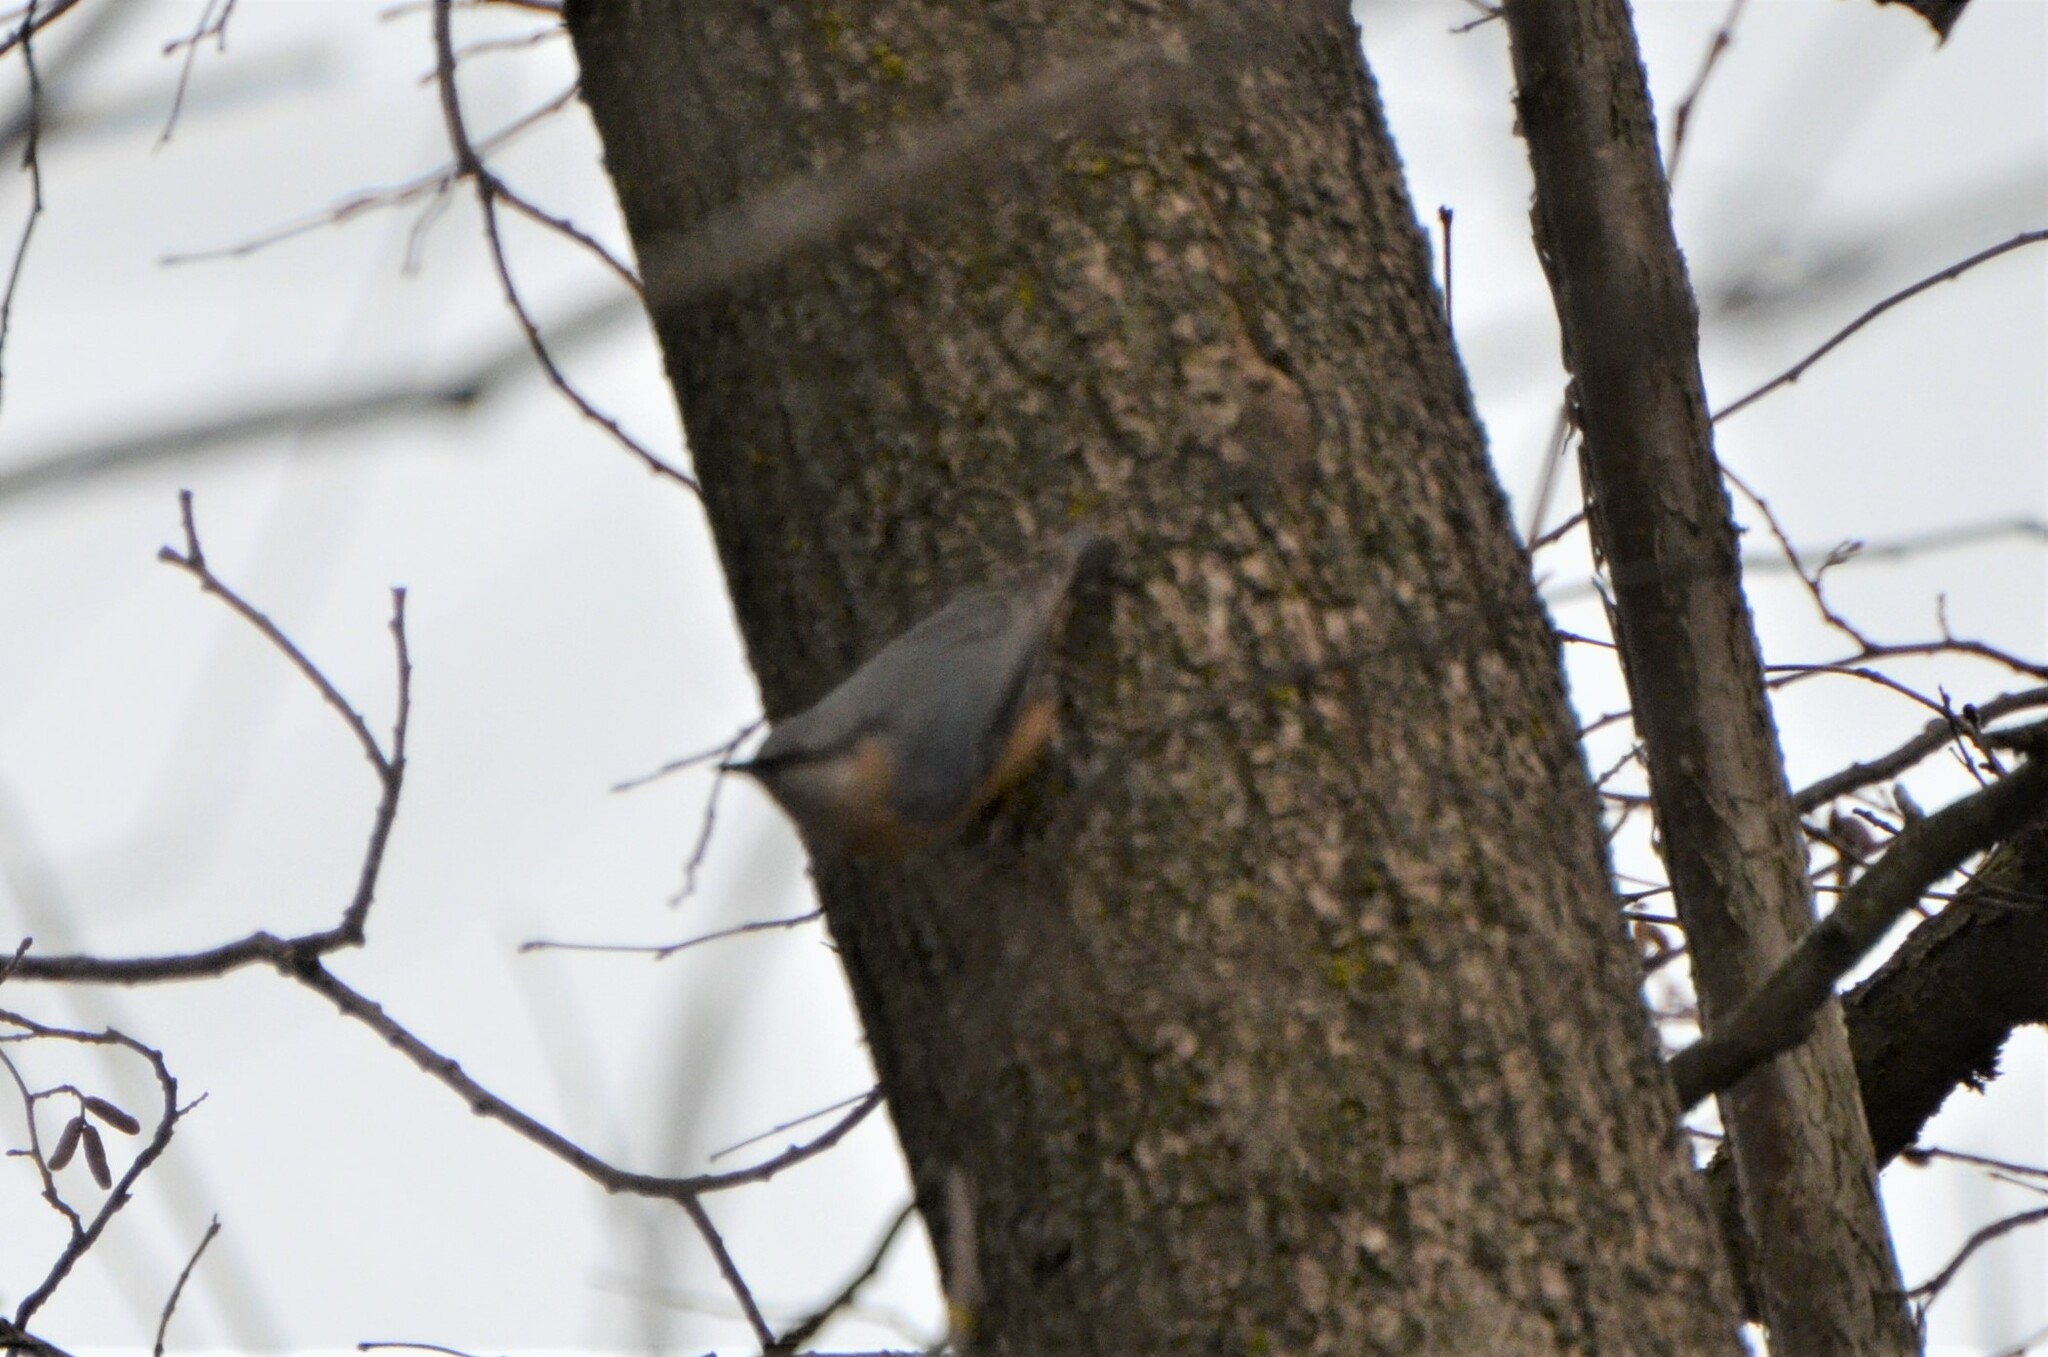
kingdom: Animalia
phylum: Chordata
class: Aves
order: Passeriformes
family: Sittidae
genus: Sitta
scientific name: Sitta europaea
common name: Eurasian nuthatch
